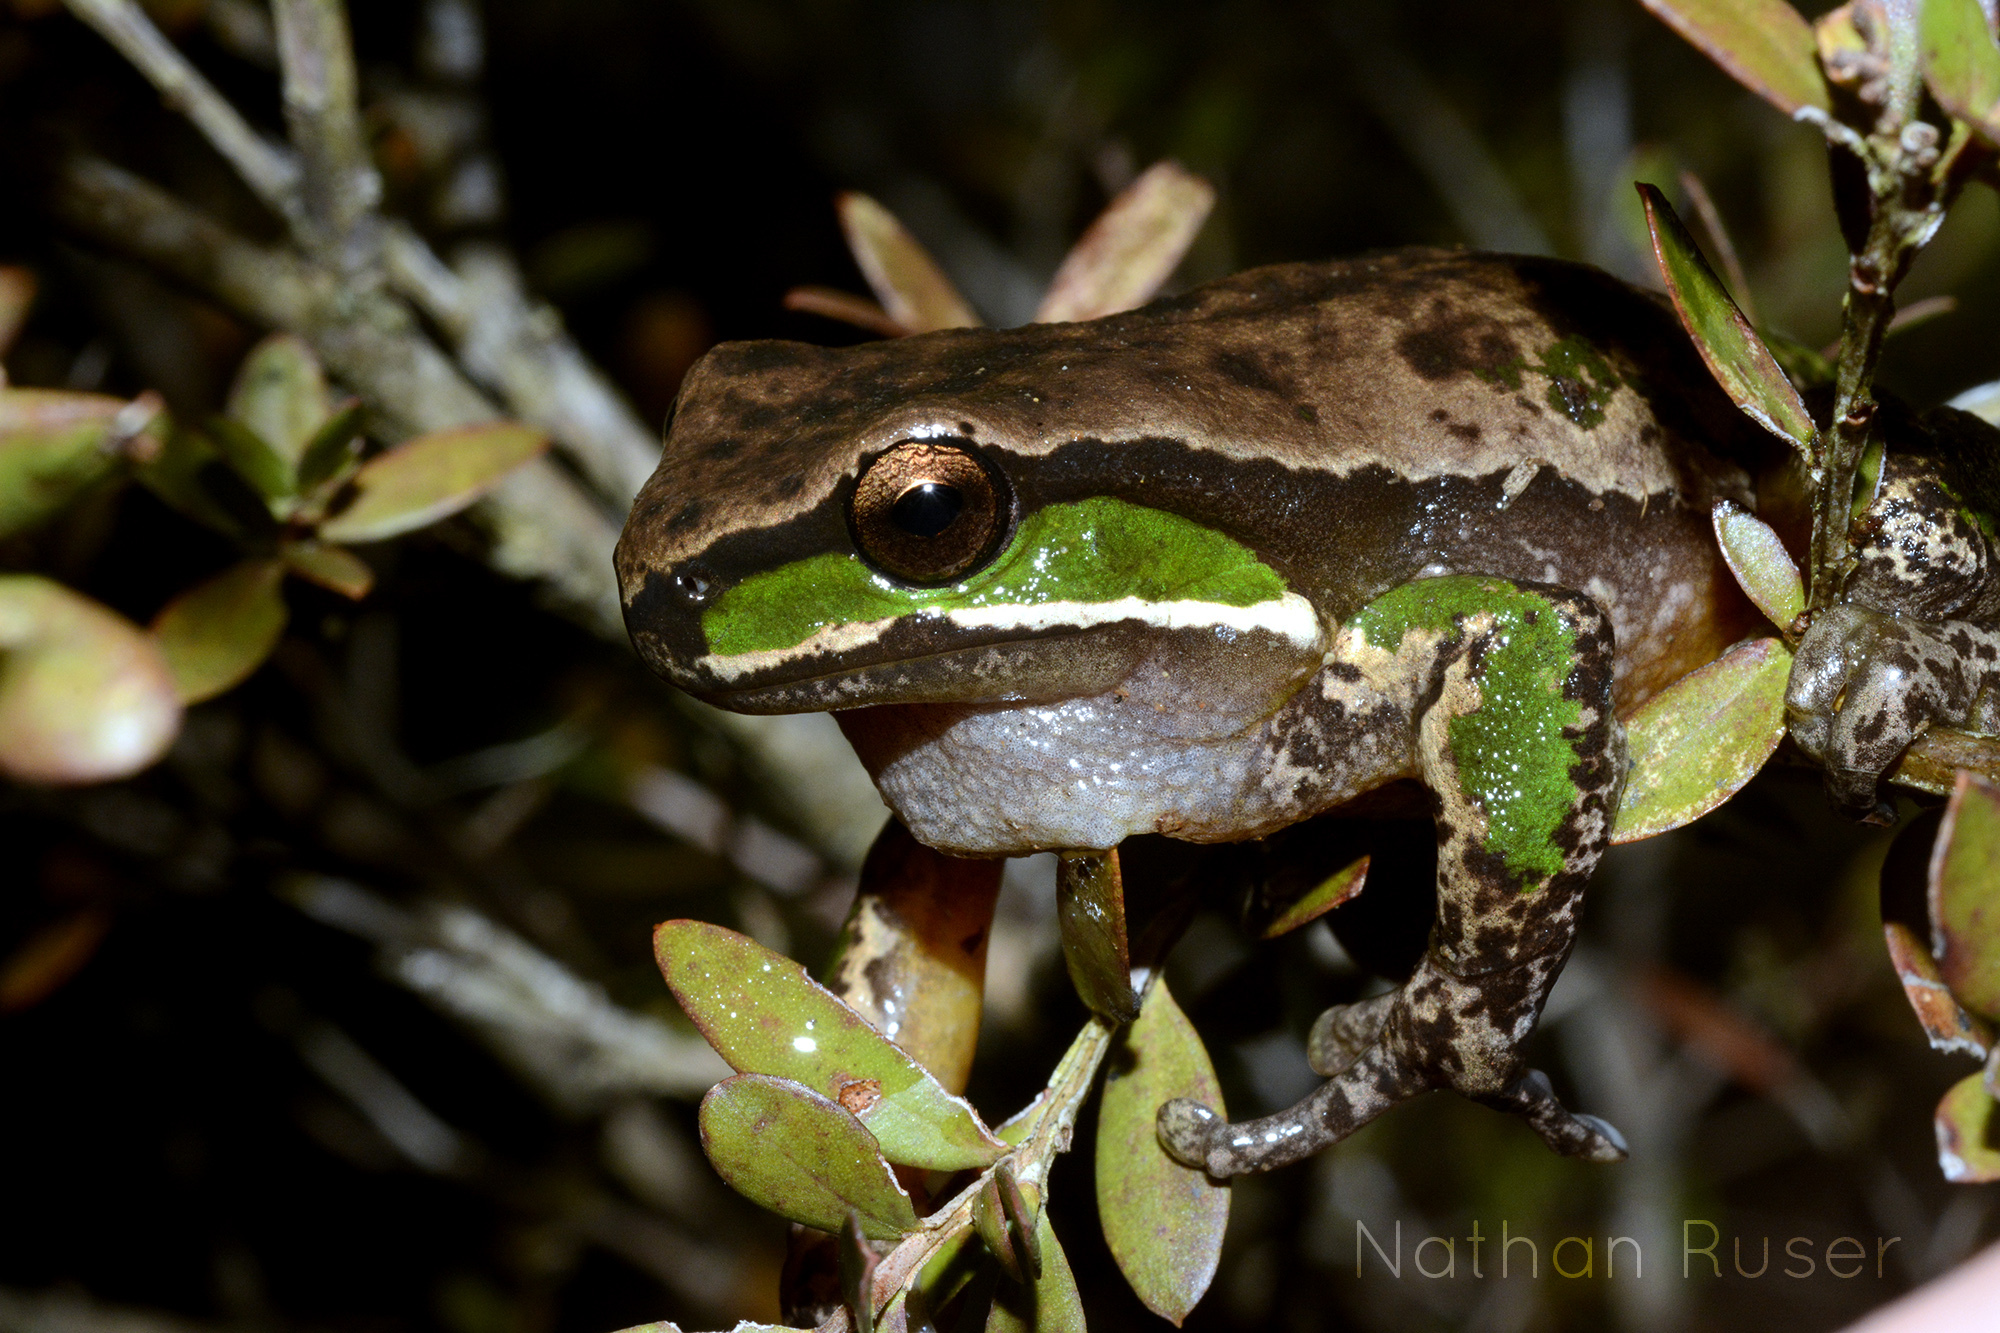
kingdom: Animalia
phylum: Chordata
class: Amphibia
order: Anura
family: Pelodryadidae
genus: Ranoidea
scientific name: Ranoidea daviesae
